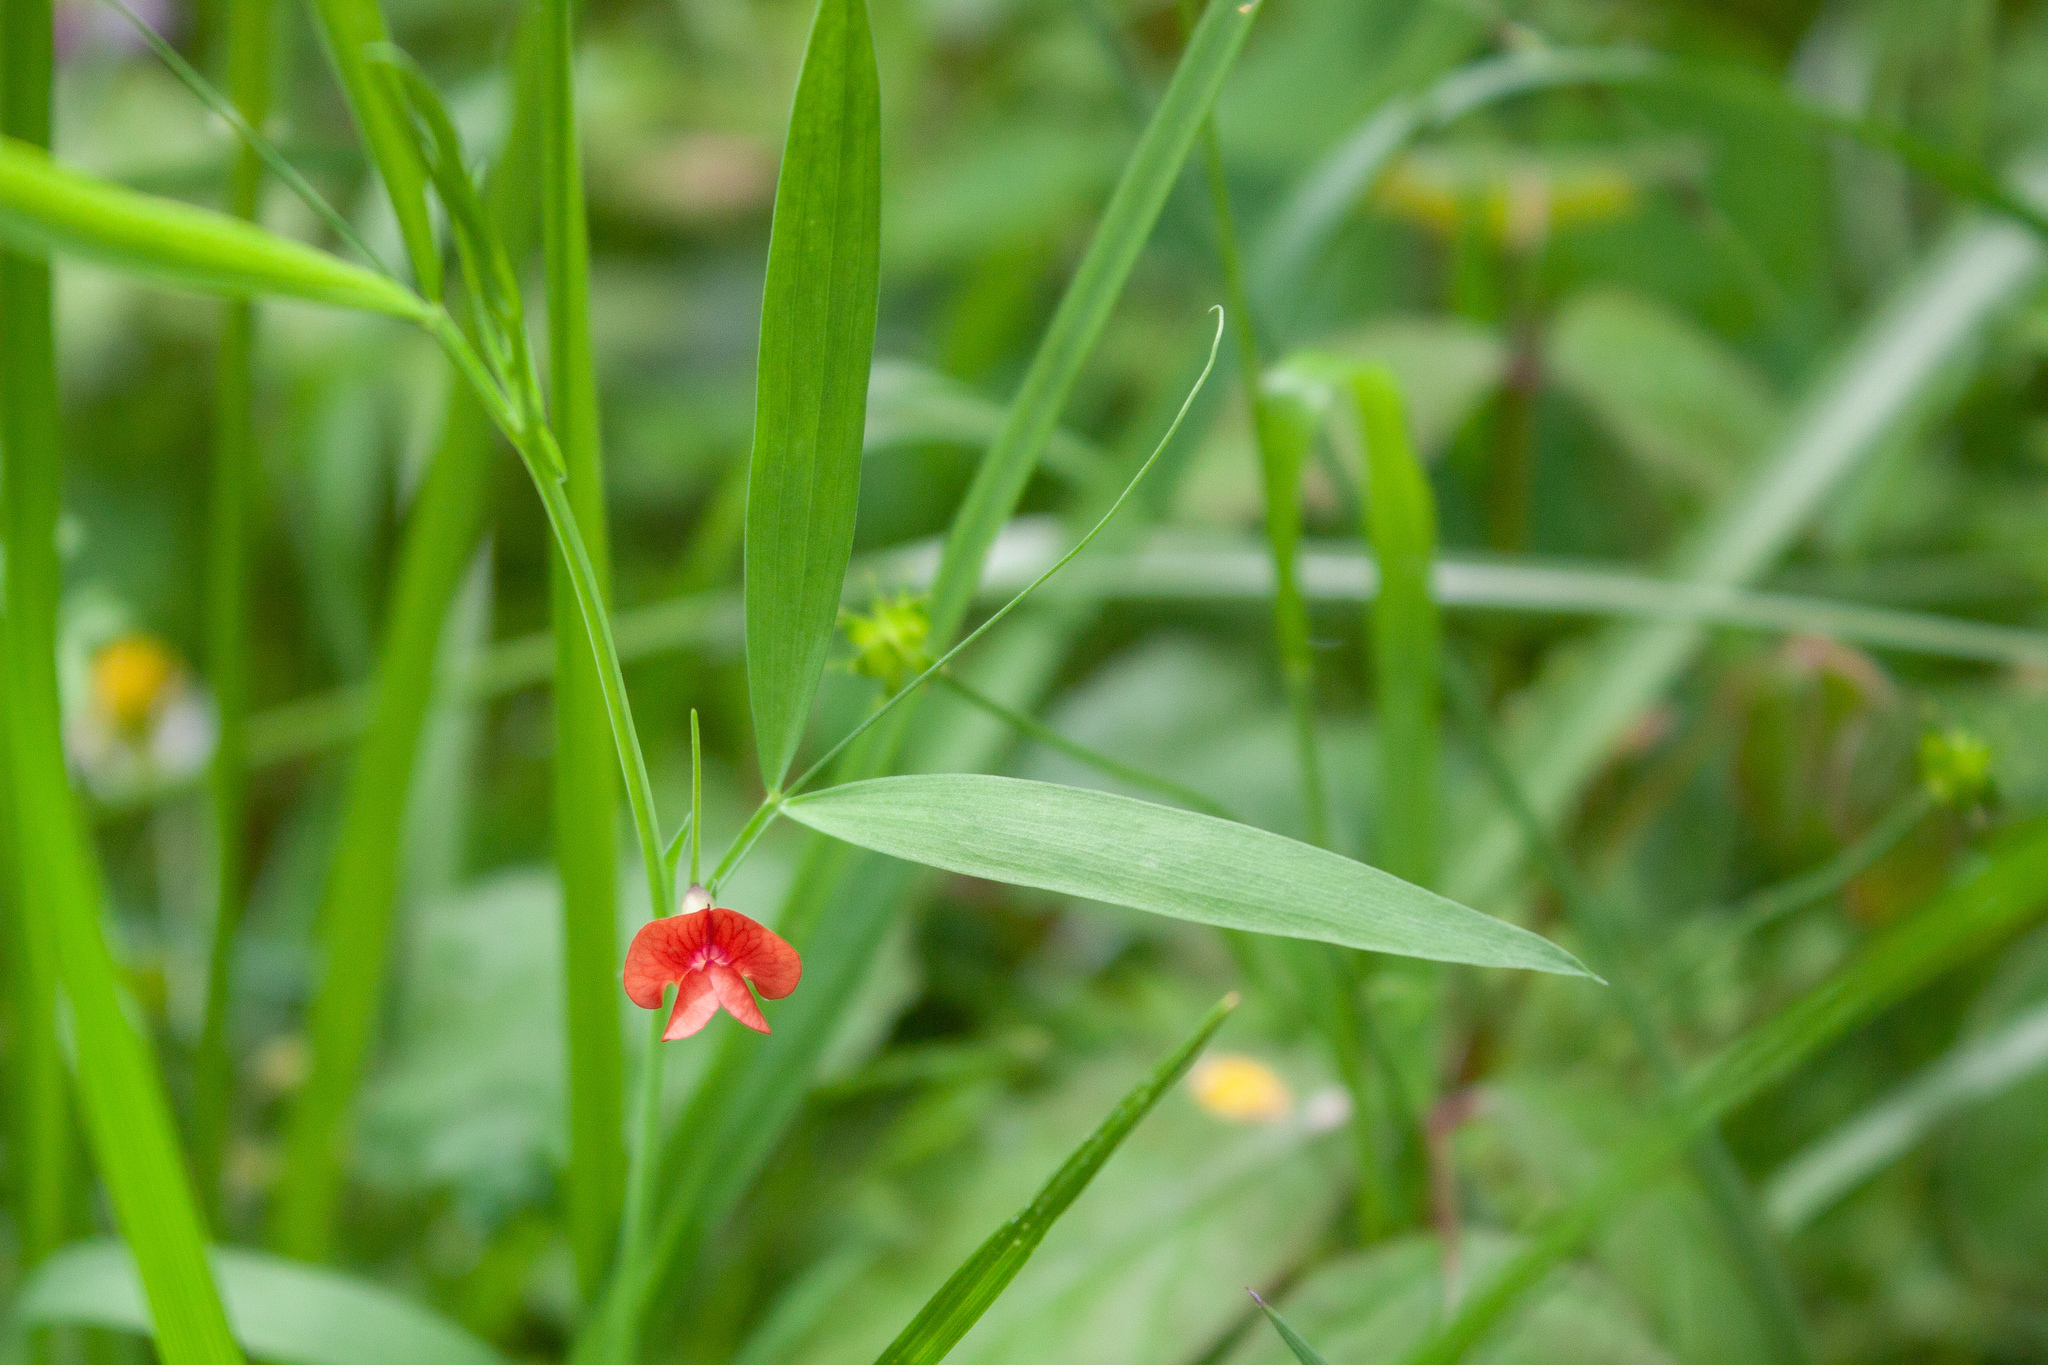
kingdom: Plantae
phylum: Tracheophyta
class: Magnoliopsida
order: Fabales
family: Fabaceae
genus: Lathyrus
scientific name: Lathyrus sphaericus
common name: Grass pea
